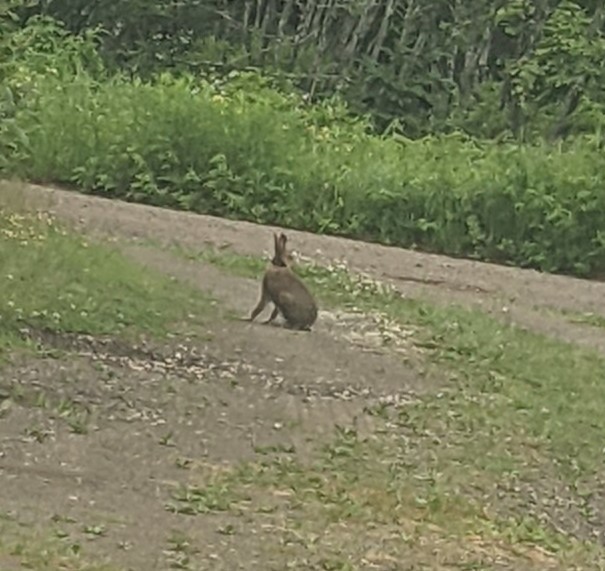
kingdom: Animalia
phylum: Chordata
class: Mammalia
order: Lagomorpha
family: Leporidae
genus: Lepus
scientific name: Lepus americanus
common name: Snowshoe hare
